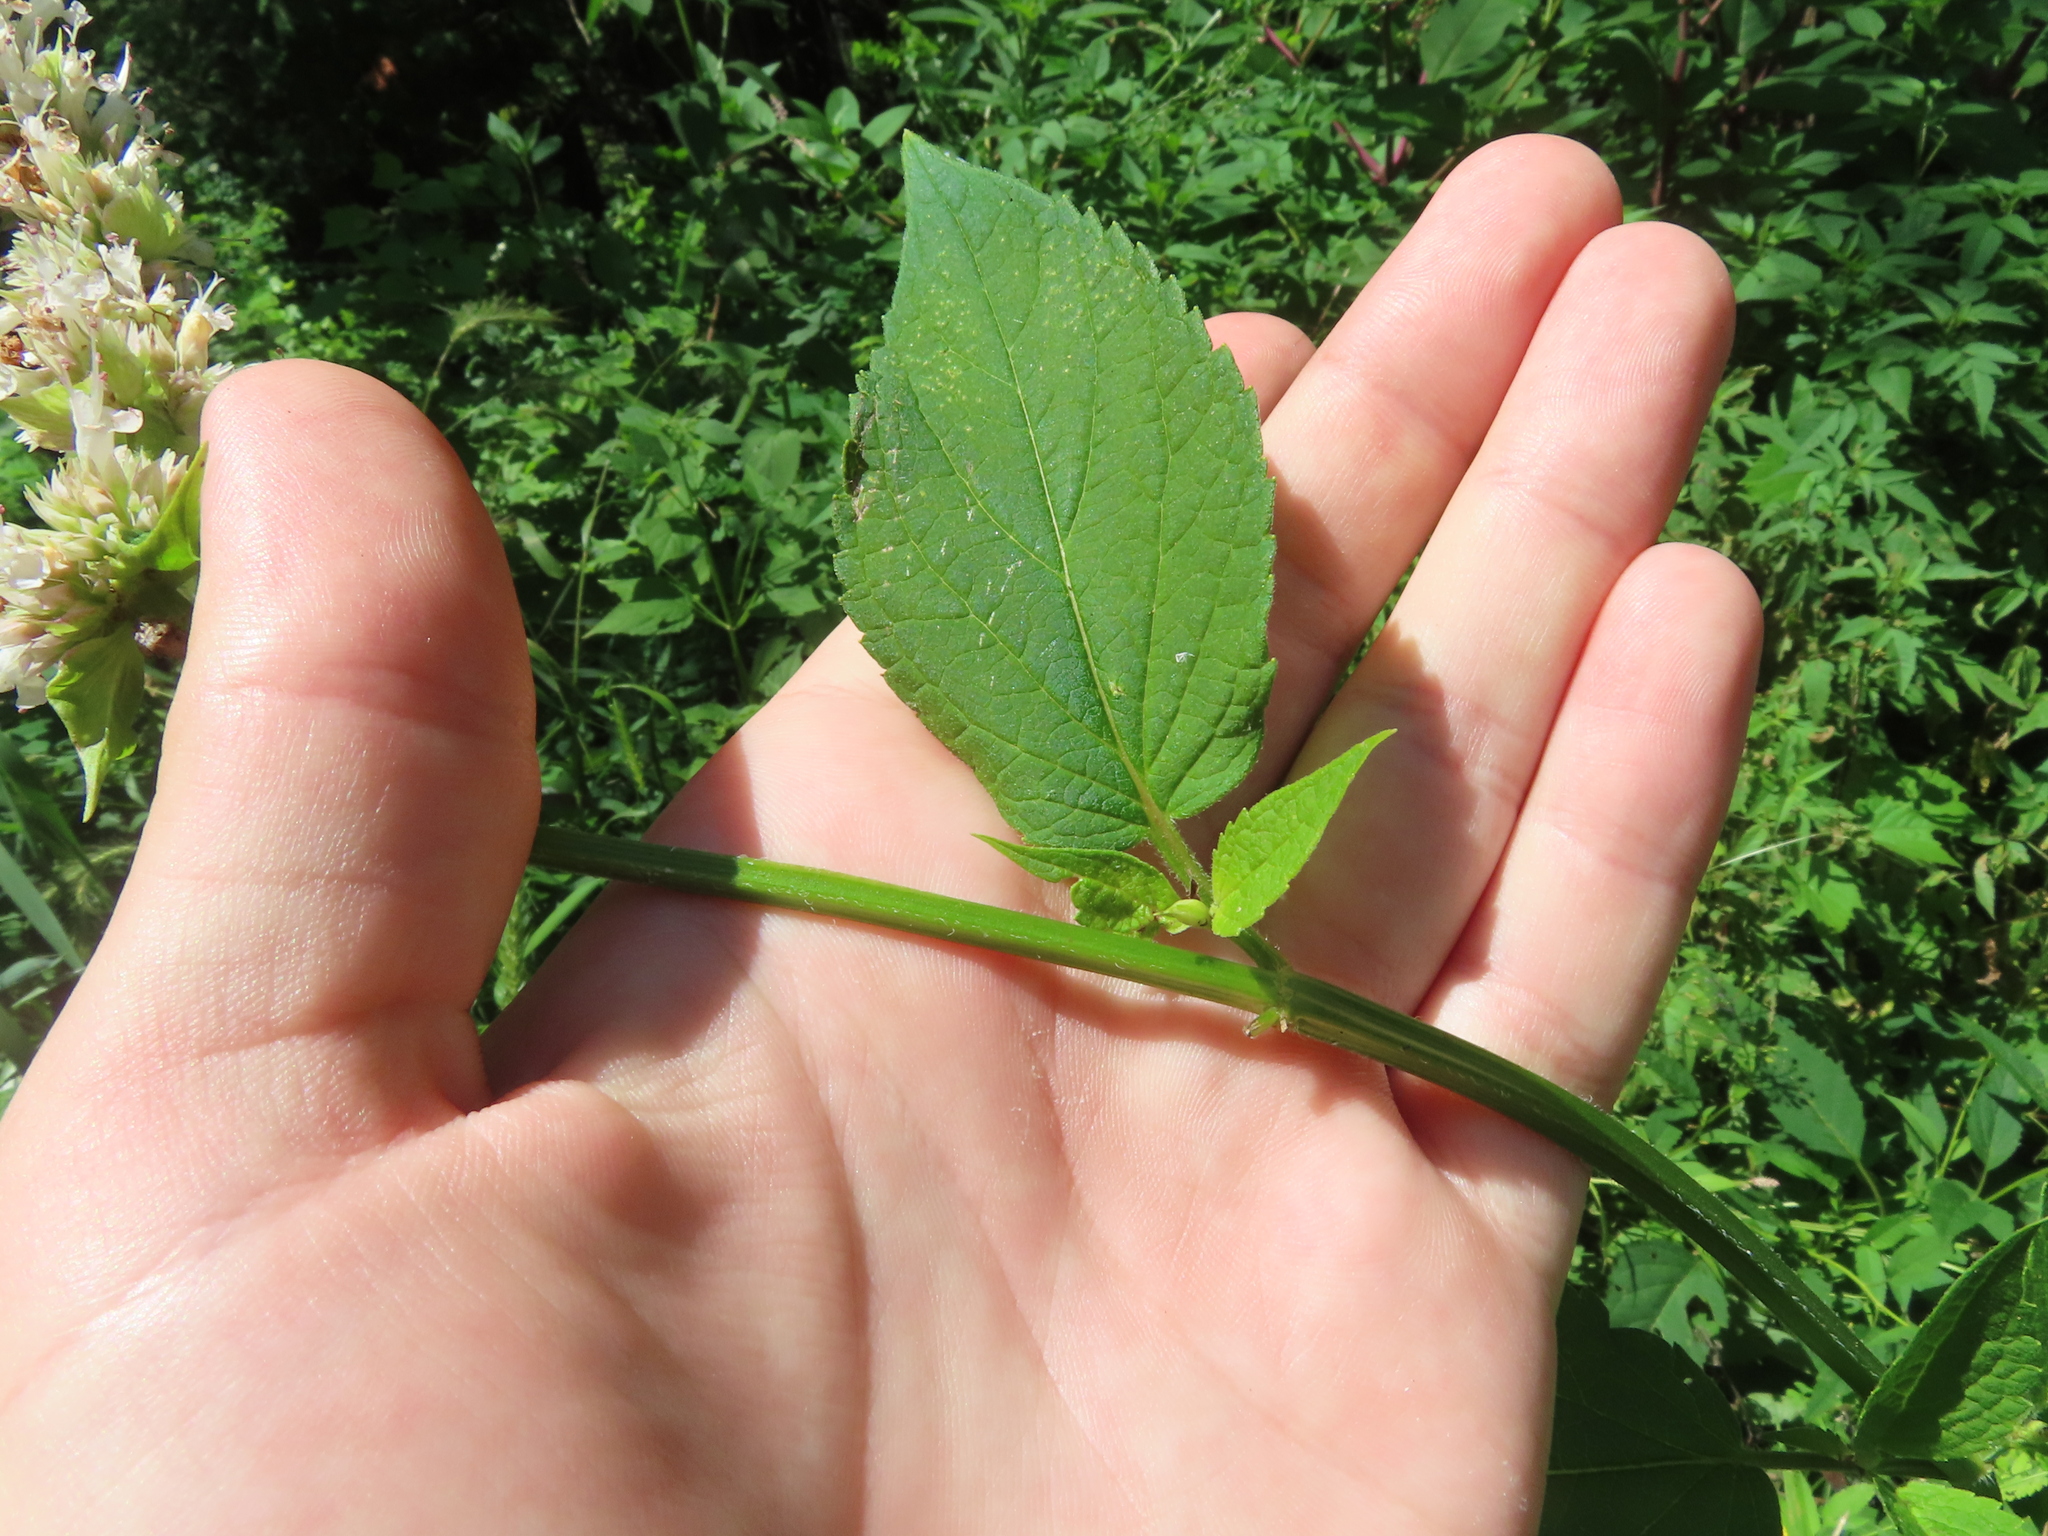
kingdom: Plantae
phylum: Tracheophyta
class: Magnoliopsida
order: Lamiales
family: Lamiaceae
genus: Agastache
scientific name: Agastache scrophulariifolia
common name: Figwort giant hyssop
